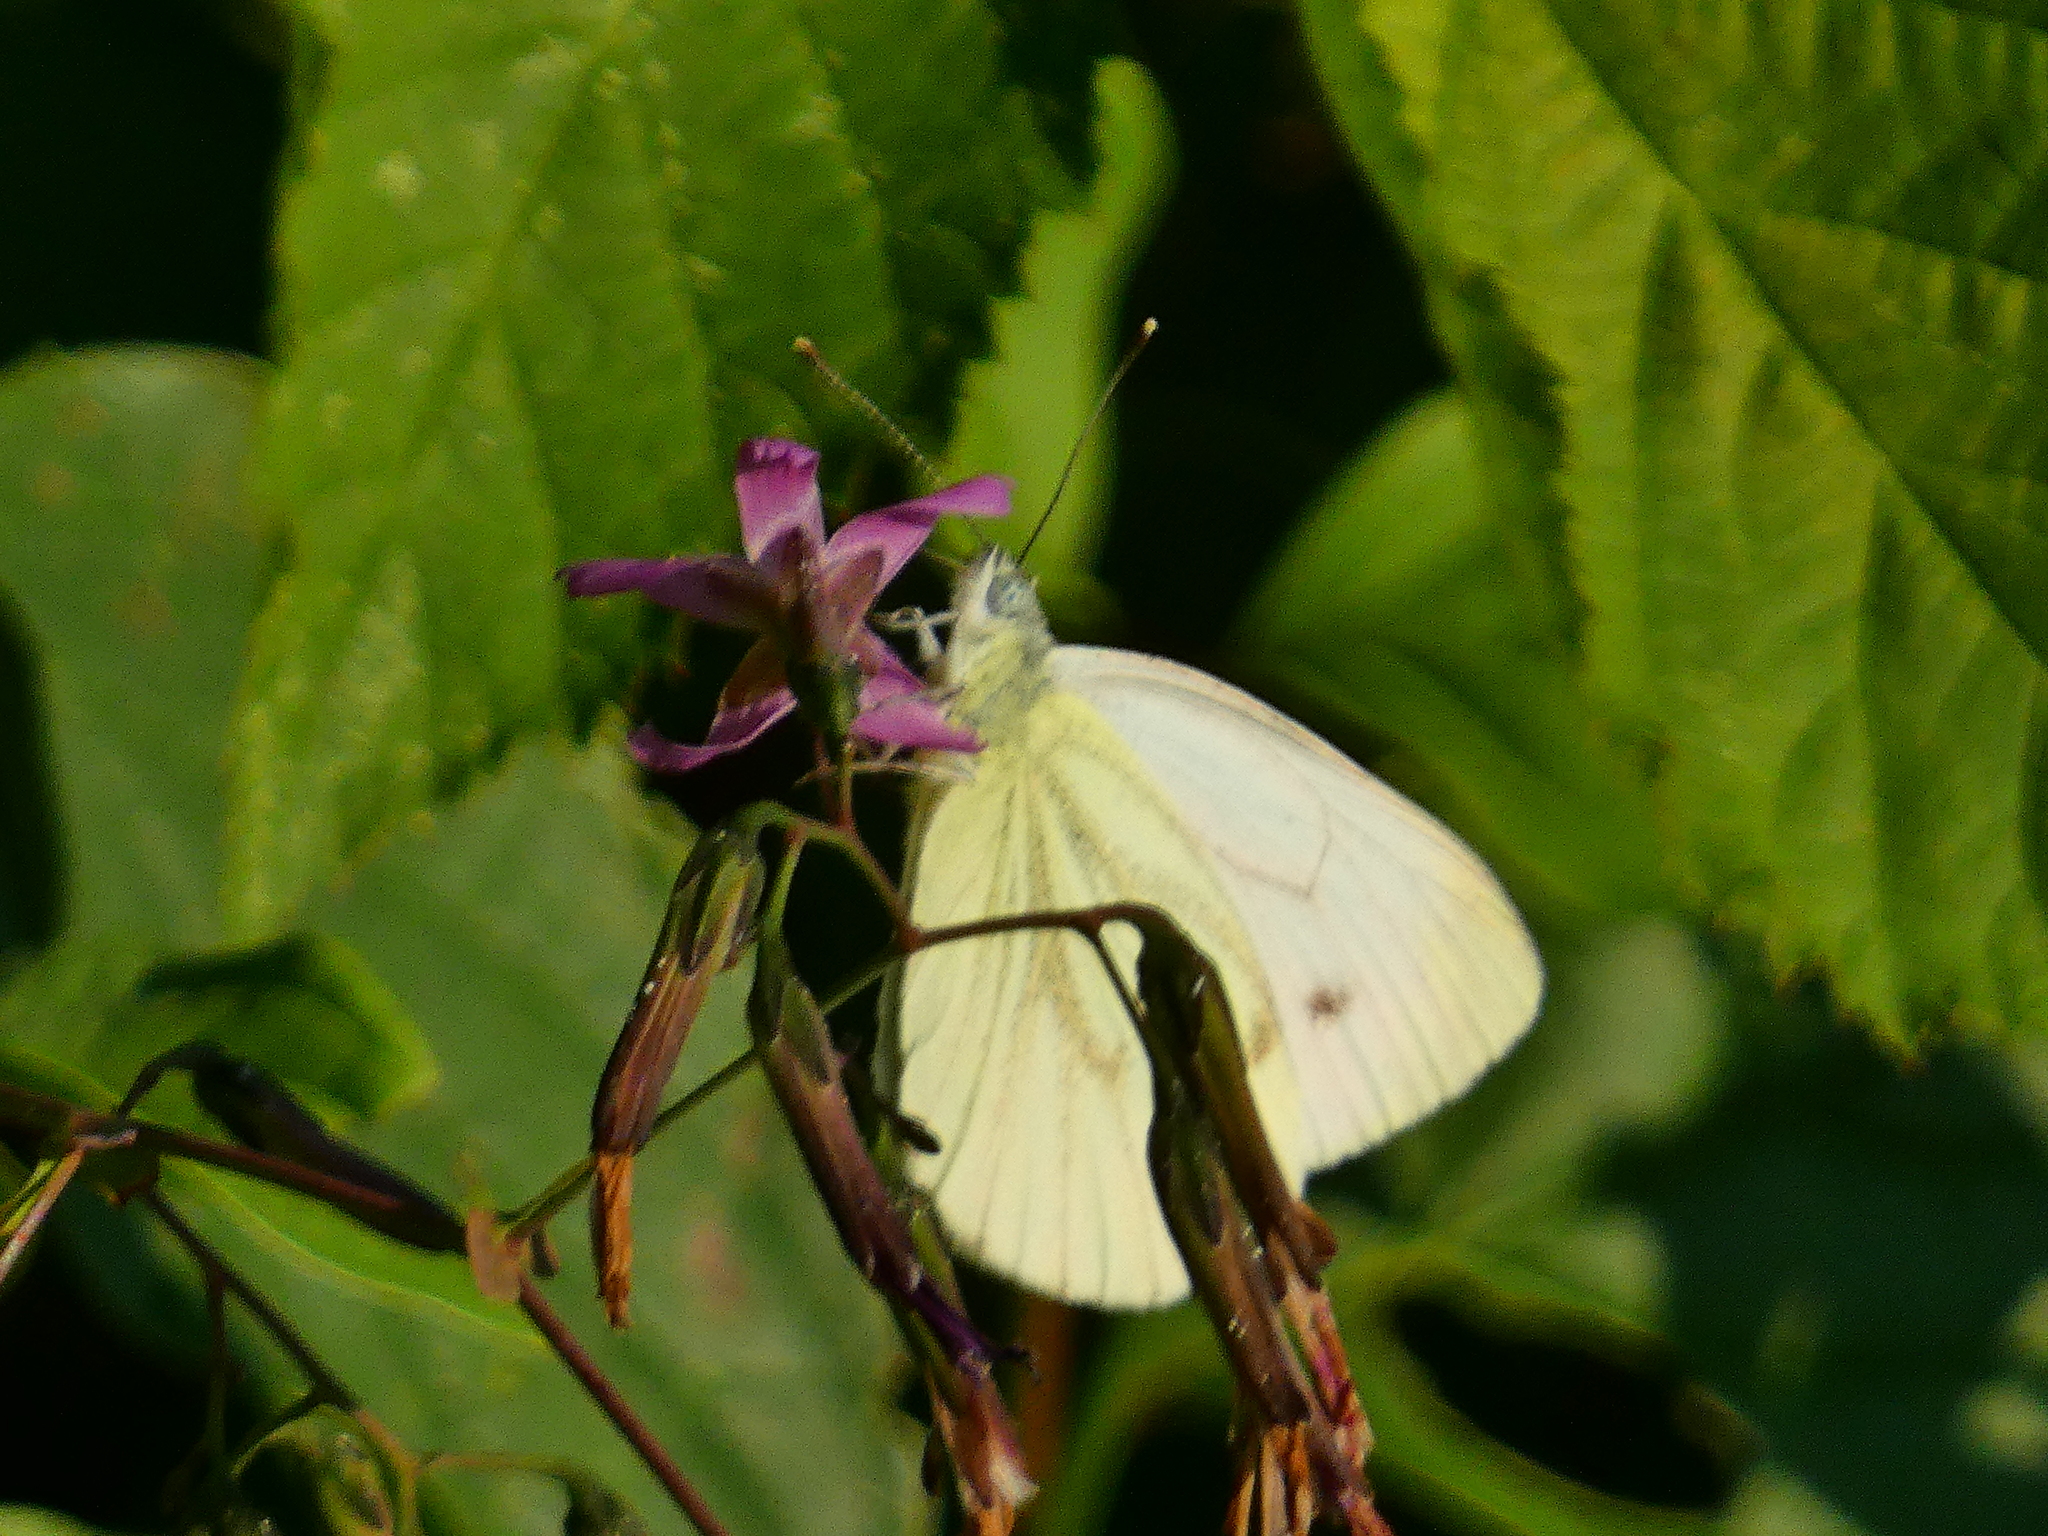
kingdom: Animalia
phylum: Arthropoda
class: Insecta
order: Lepidoptera
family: Pieridae
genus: Pieris
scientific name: Pieris napi
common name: Green-veined white
